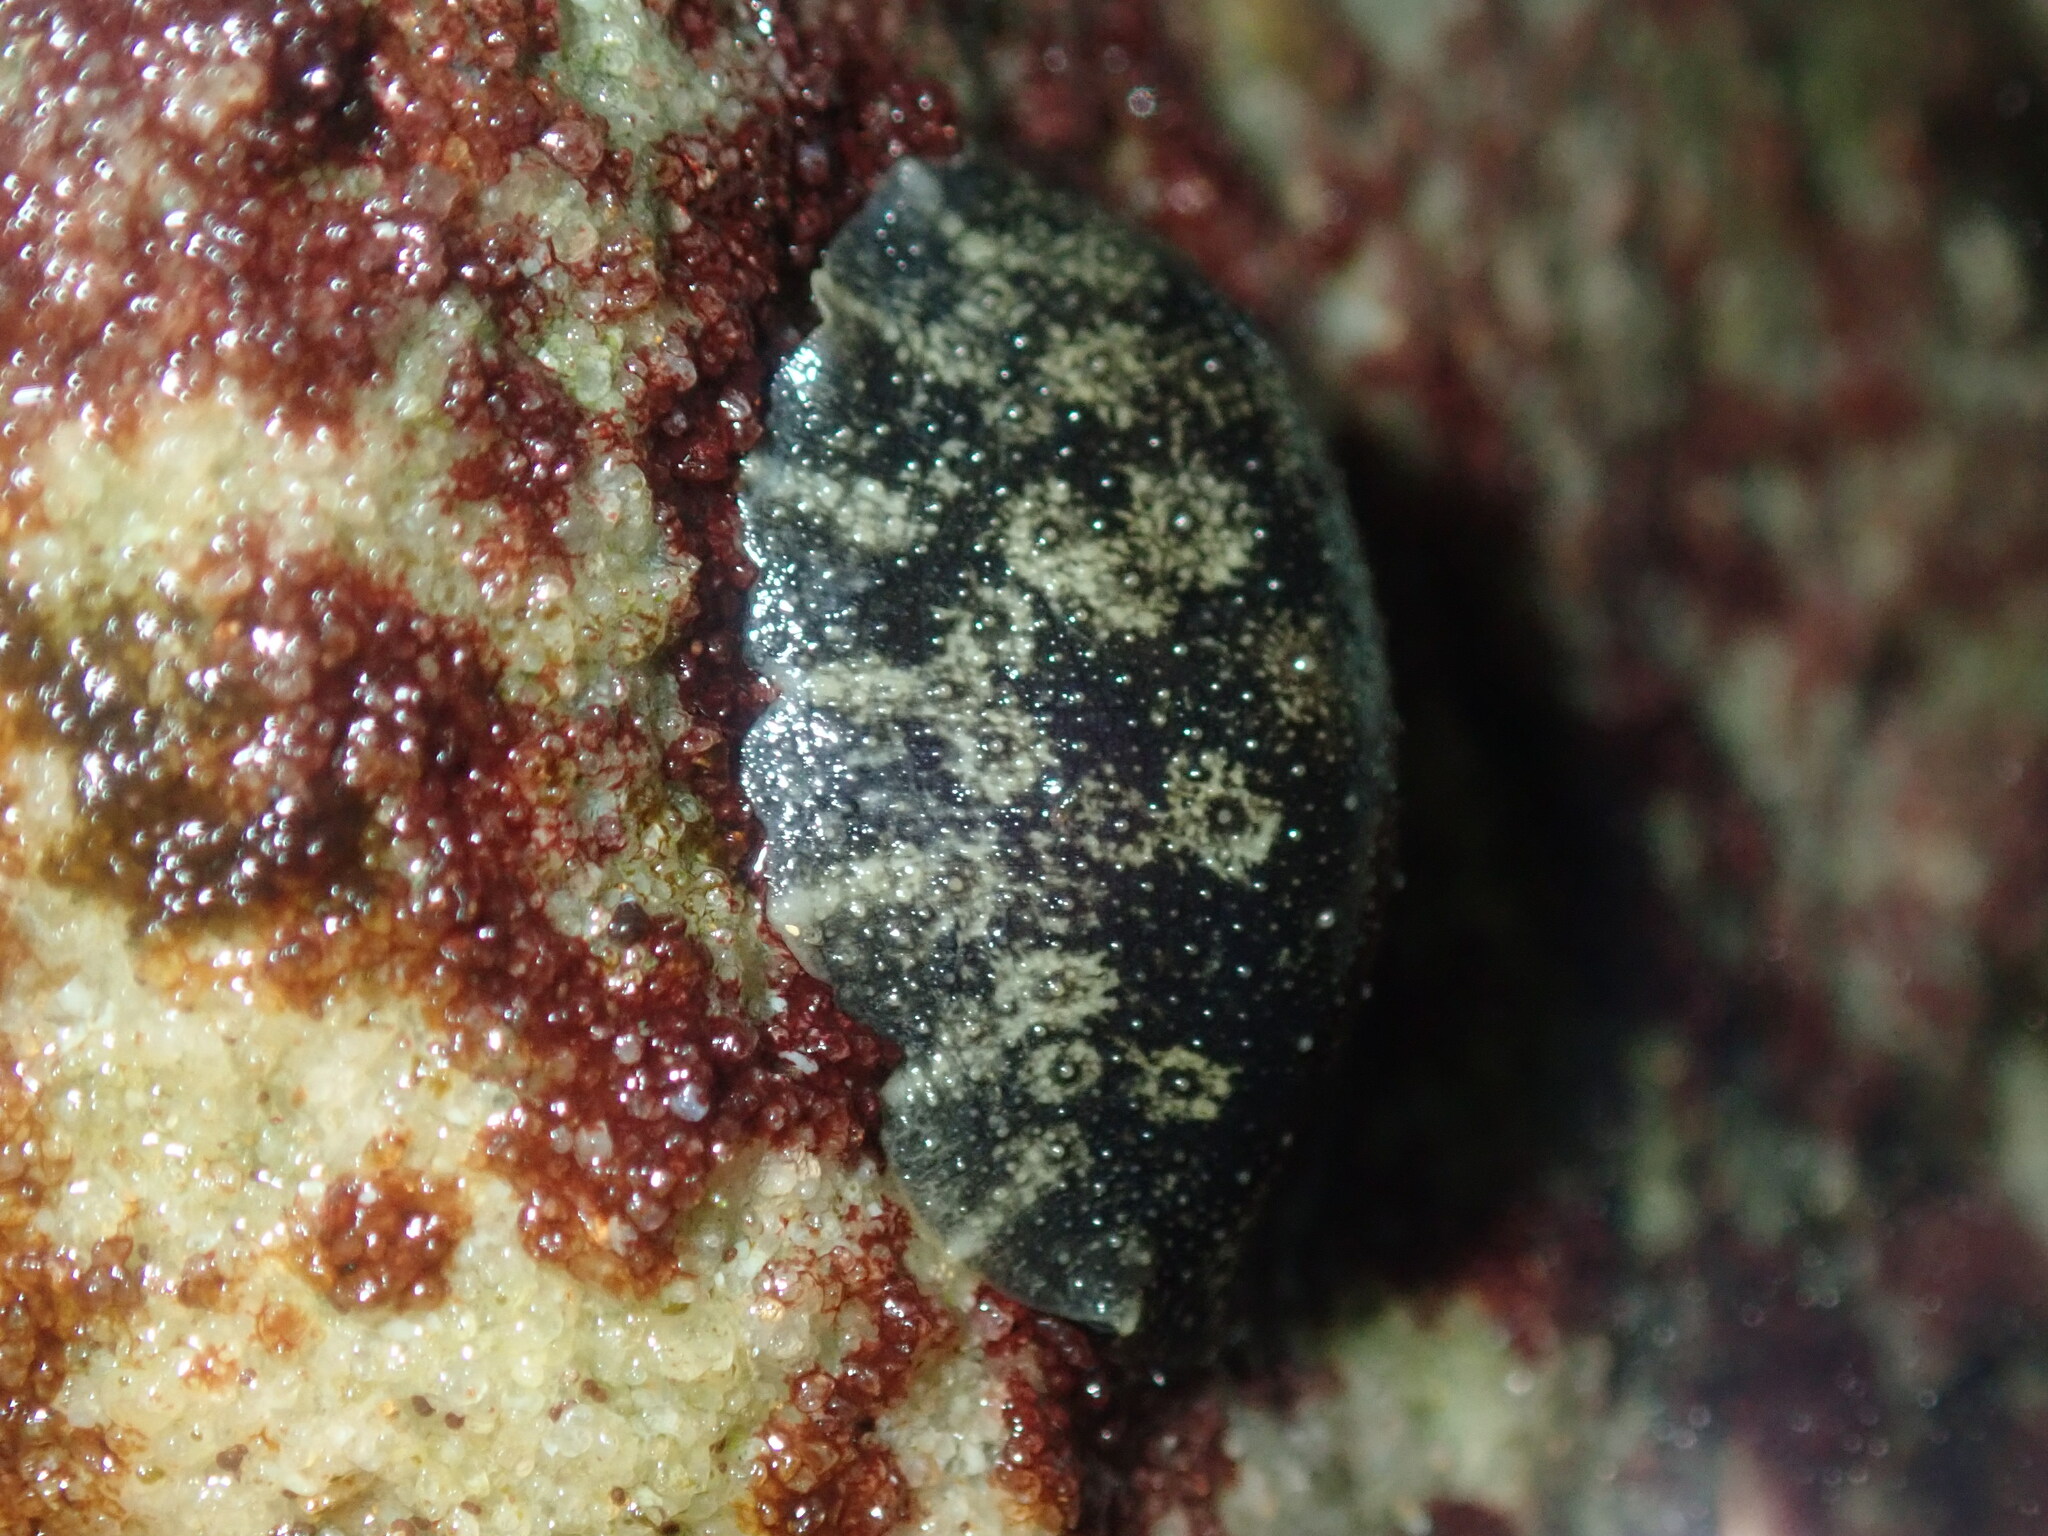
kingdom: Animalia
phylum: Mollusca
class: Gastropoda
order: Systellommatophora
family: Onchidiidae
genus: Onchidella
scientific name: Onchidella nigricans
